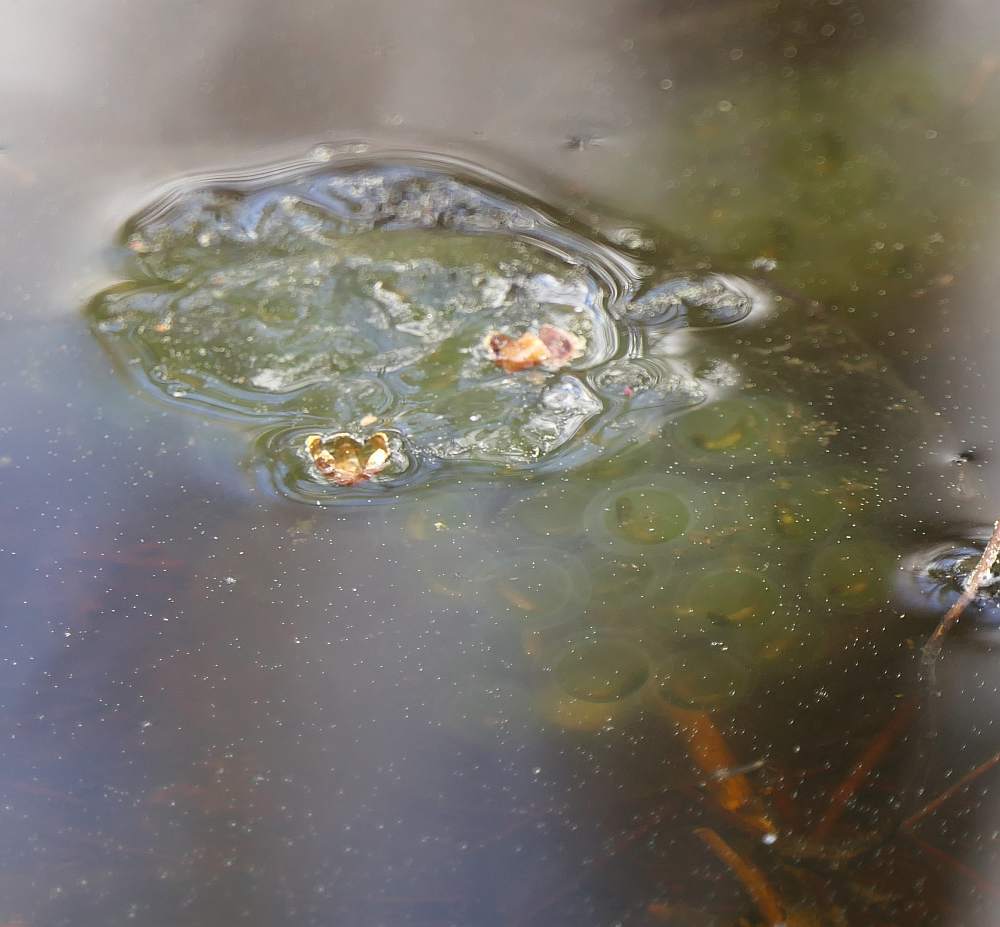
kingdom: Animalia
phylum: Chordata
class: Amphibia
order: Caudata
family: Ambystomatidae
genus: Ambystoma
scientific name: Ambystoma maculatum
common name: Spotted salamander
